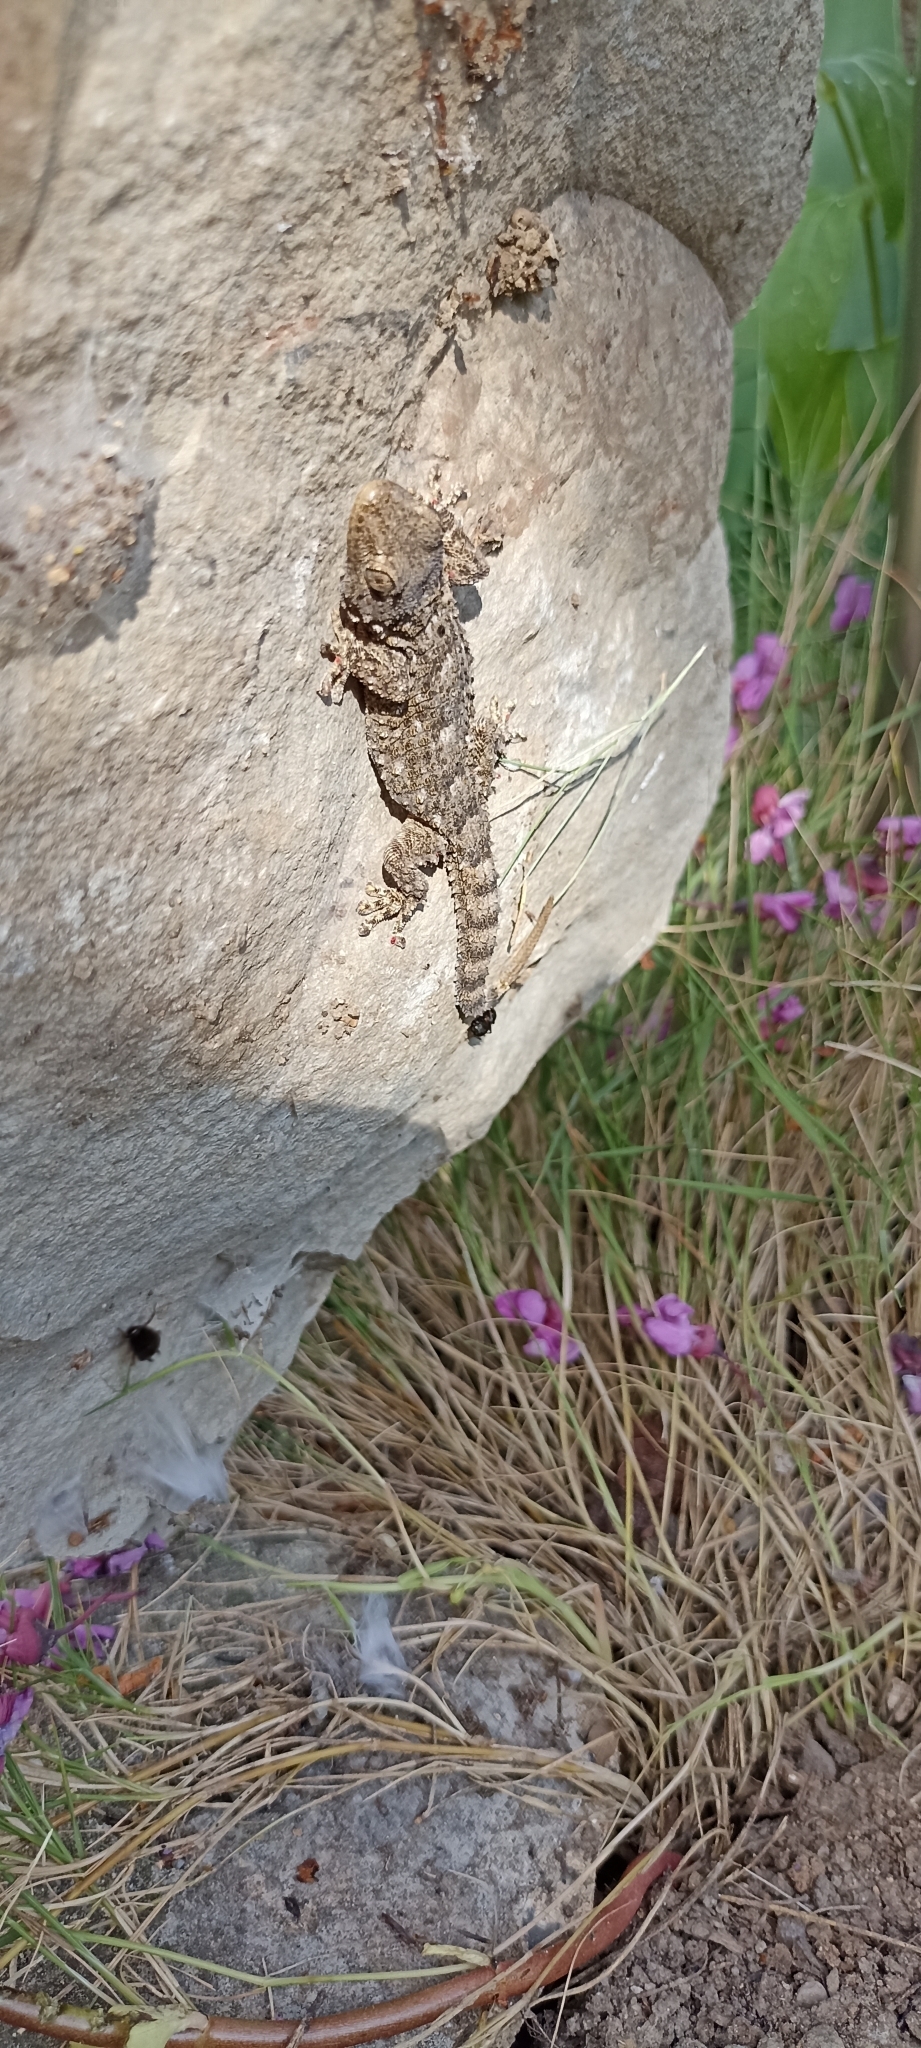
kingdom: Animalia
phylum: Chordata
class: Squamata
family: Phyllodactylidae
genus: Tarentola
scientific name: Tarentola mauritanica
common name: Moorish gecko
